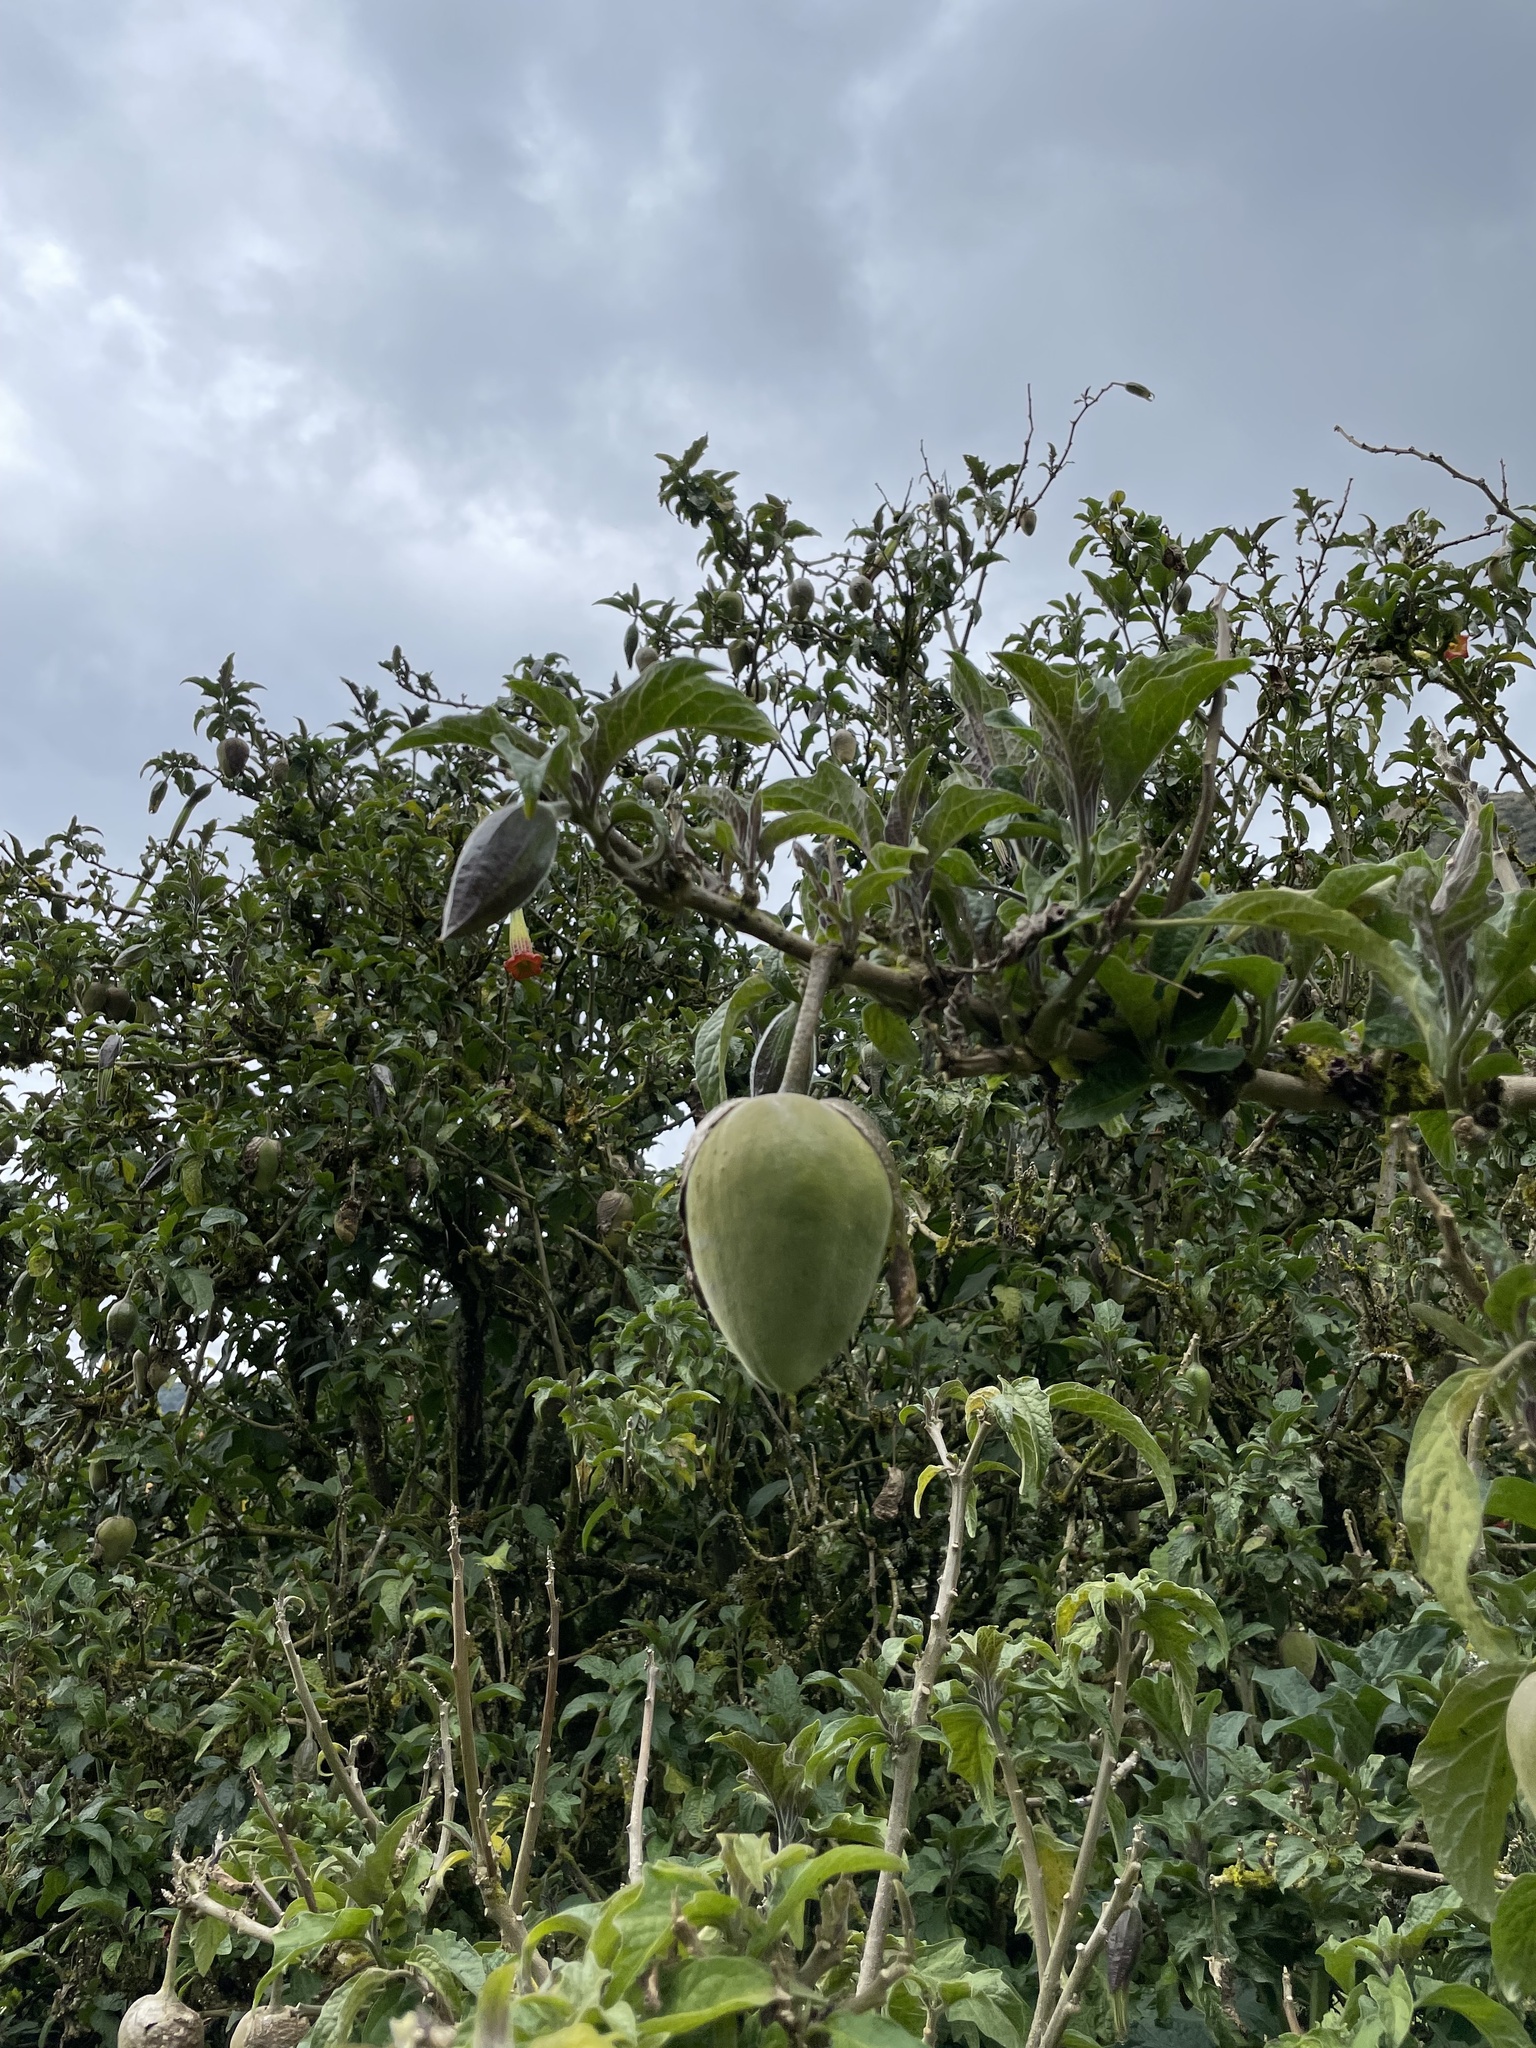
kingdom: Plantae
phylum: Tracheophyta
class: Magnoliopsida
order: Solanales
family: Solanaceae
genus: Brugmansia
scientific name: Brugmansia sanguinea
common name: Red floripontio
